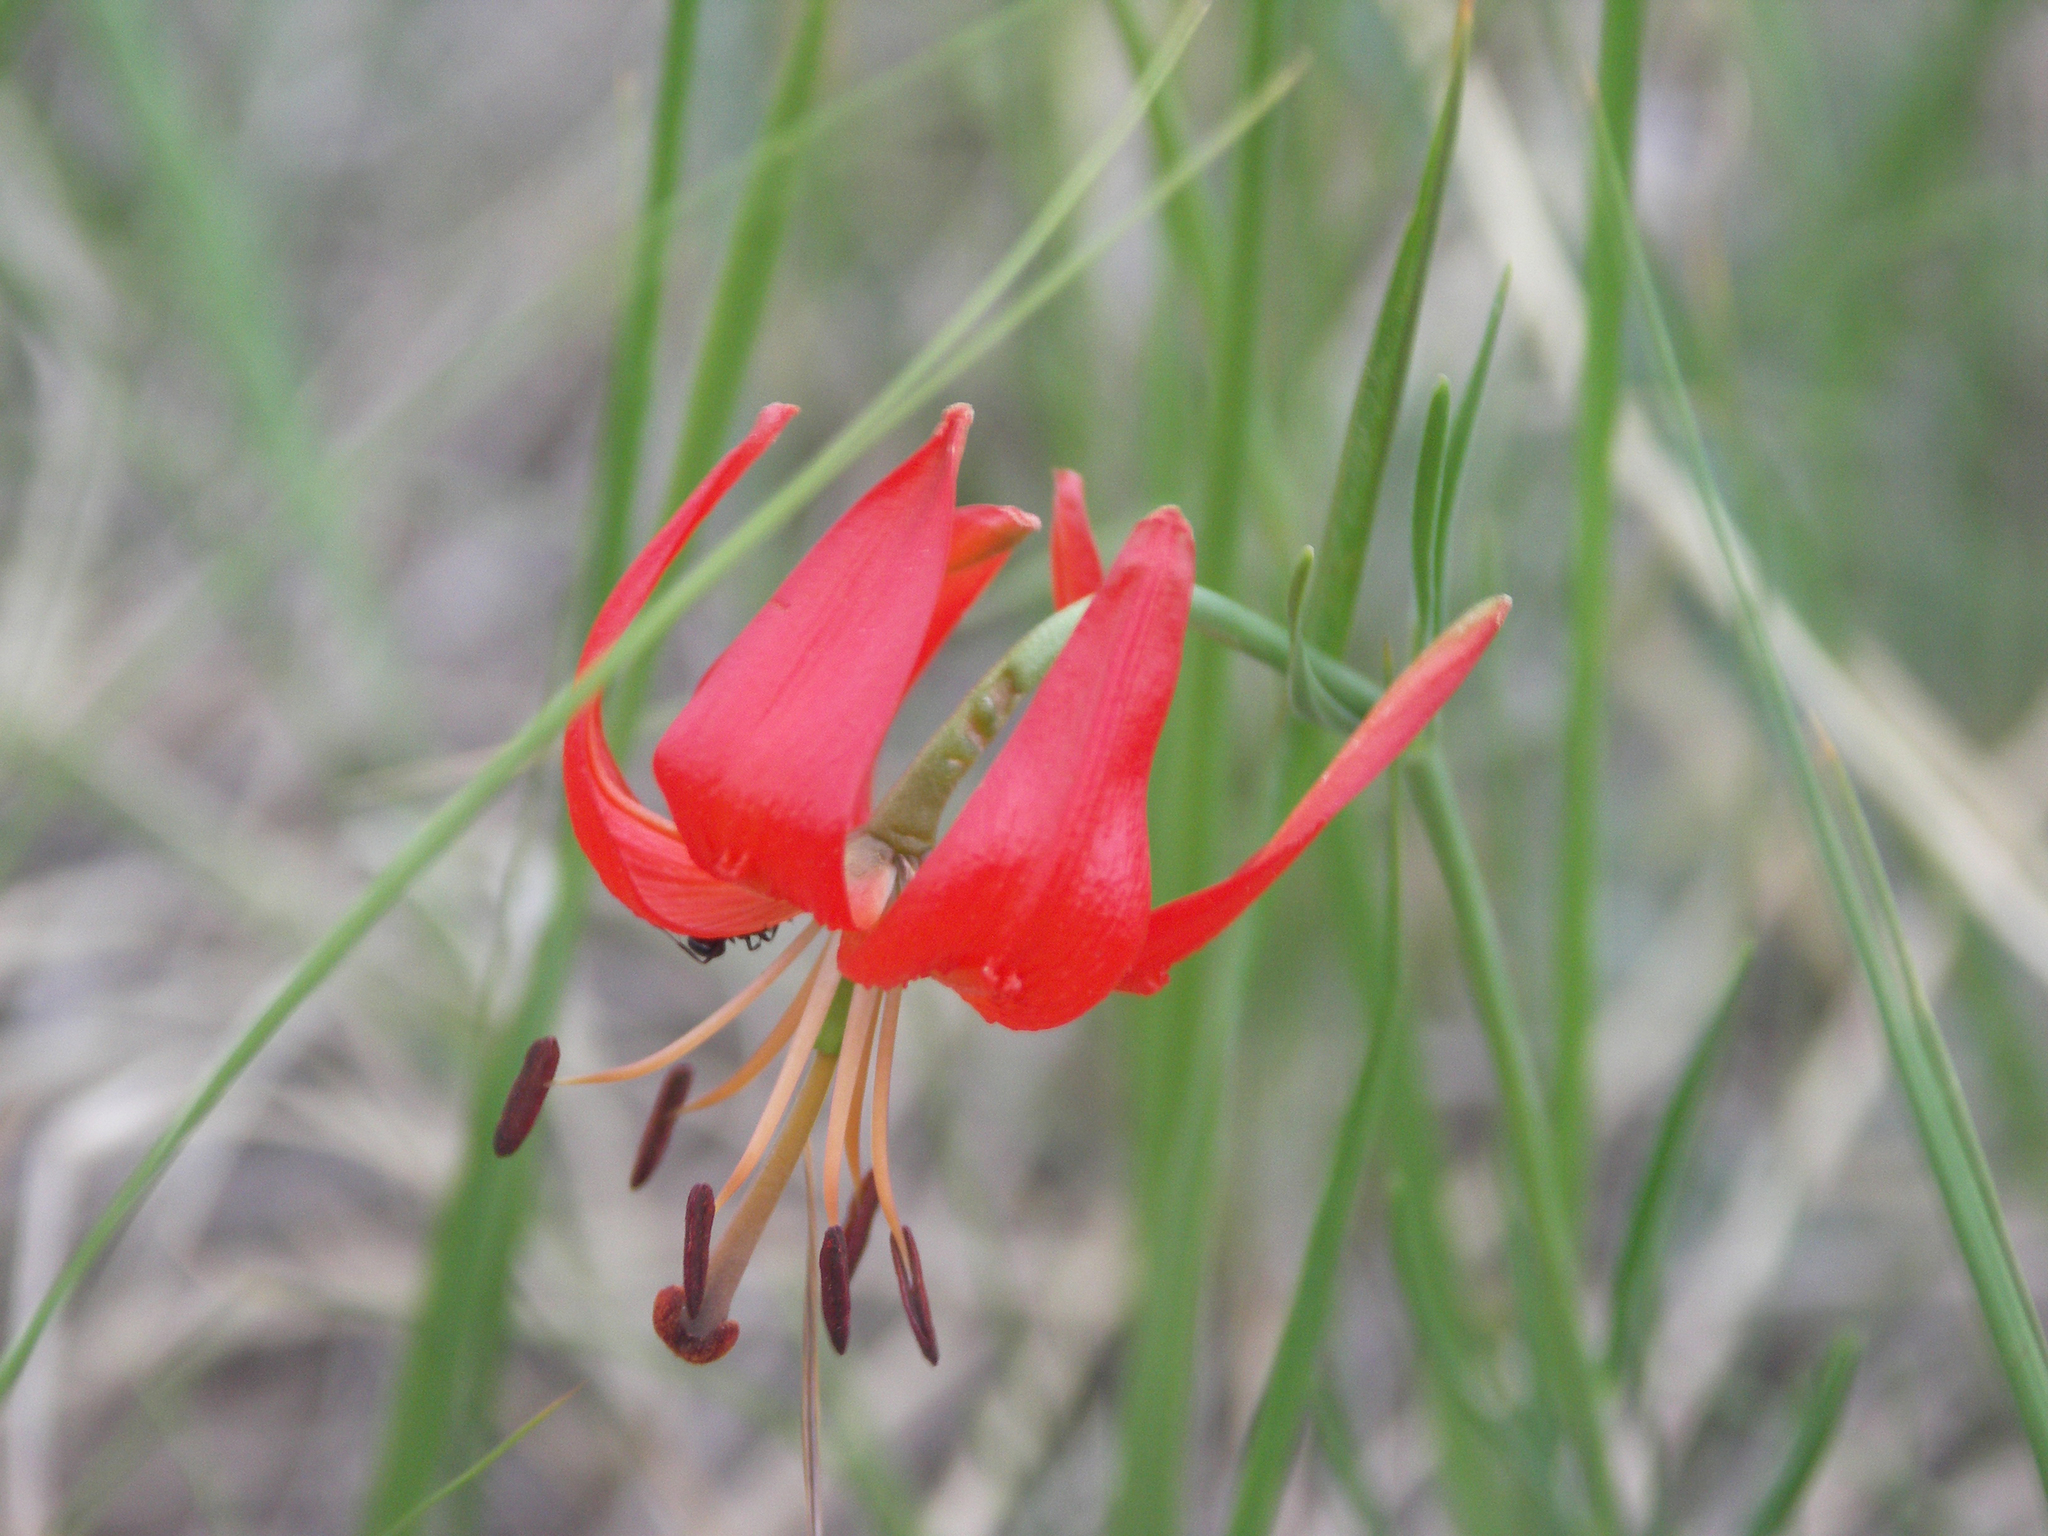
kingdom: Plantae
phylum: Tracheophyta
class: Liliopsida
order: Liliales
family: Liliaceae
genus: Lilium
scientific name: Lilium pumilum
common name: Coral lily
